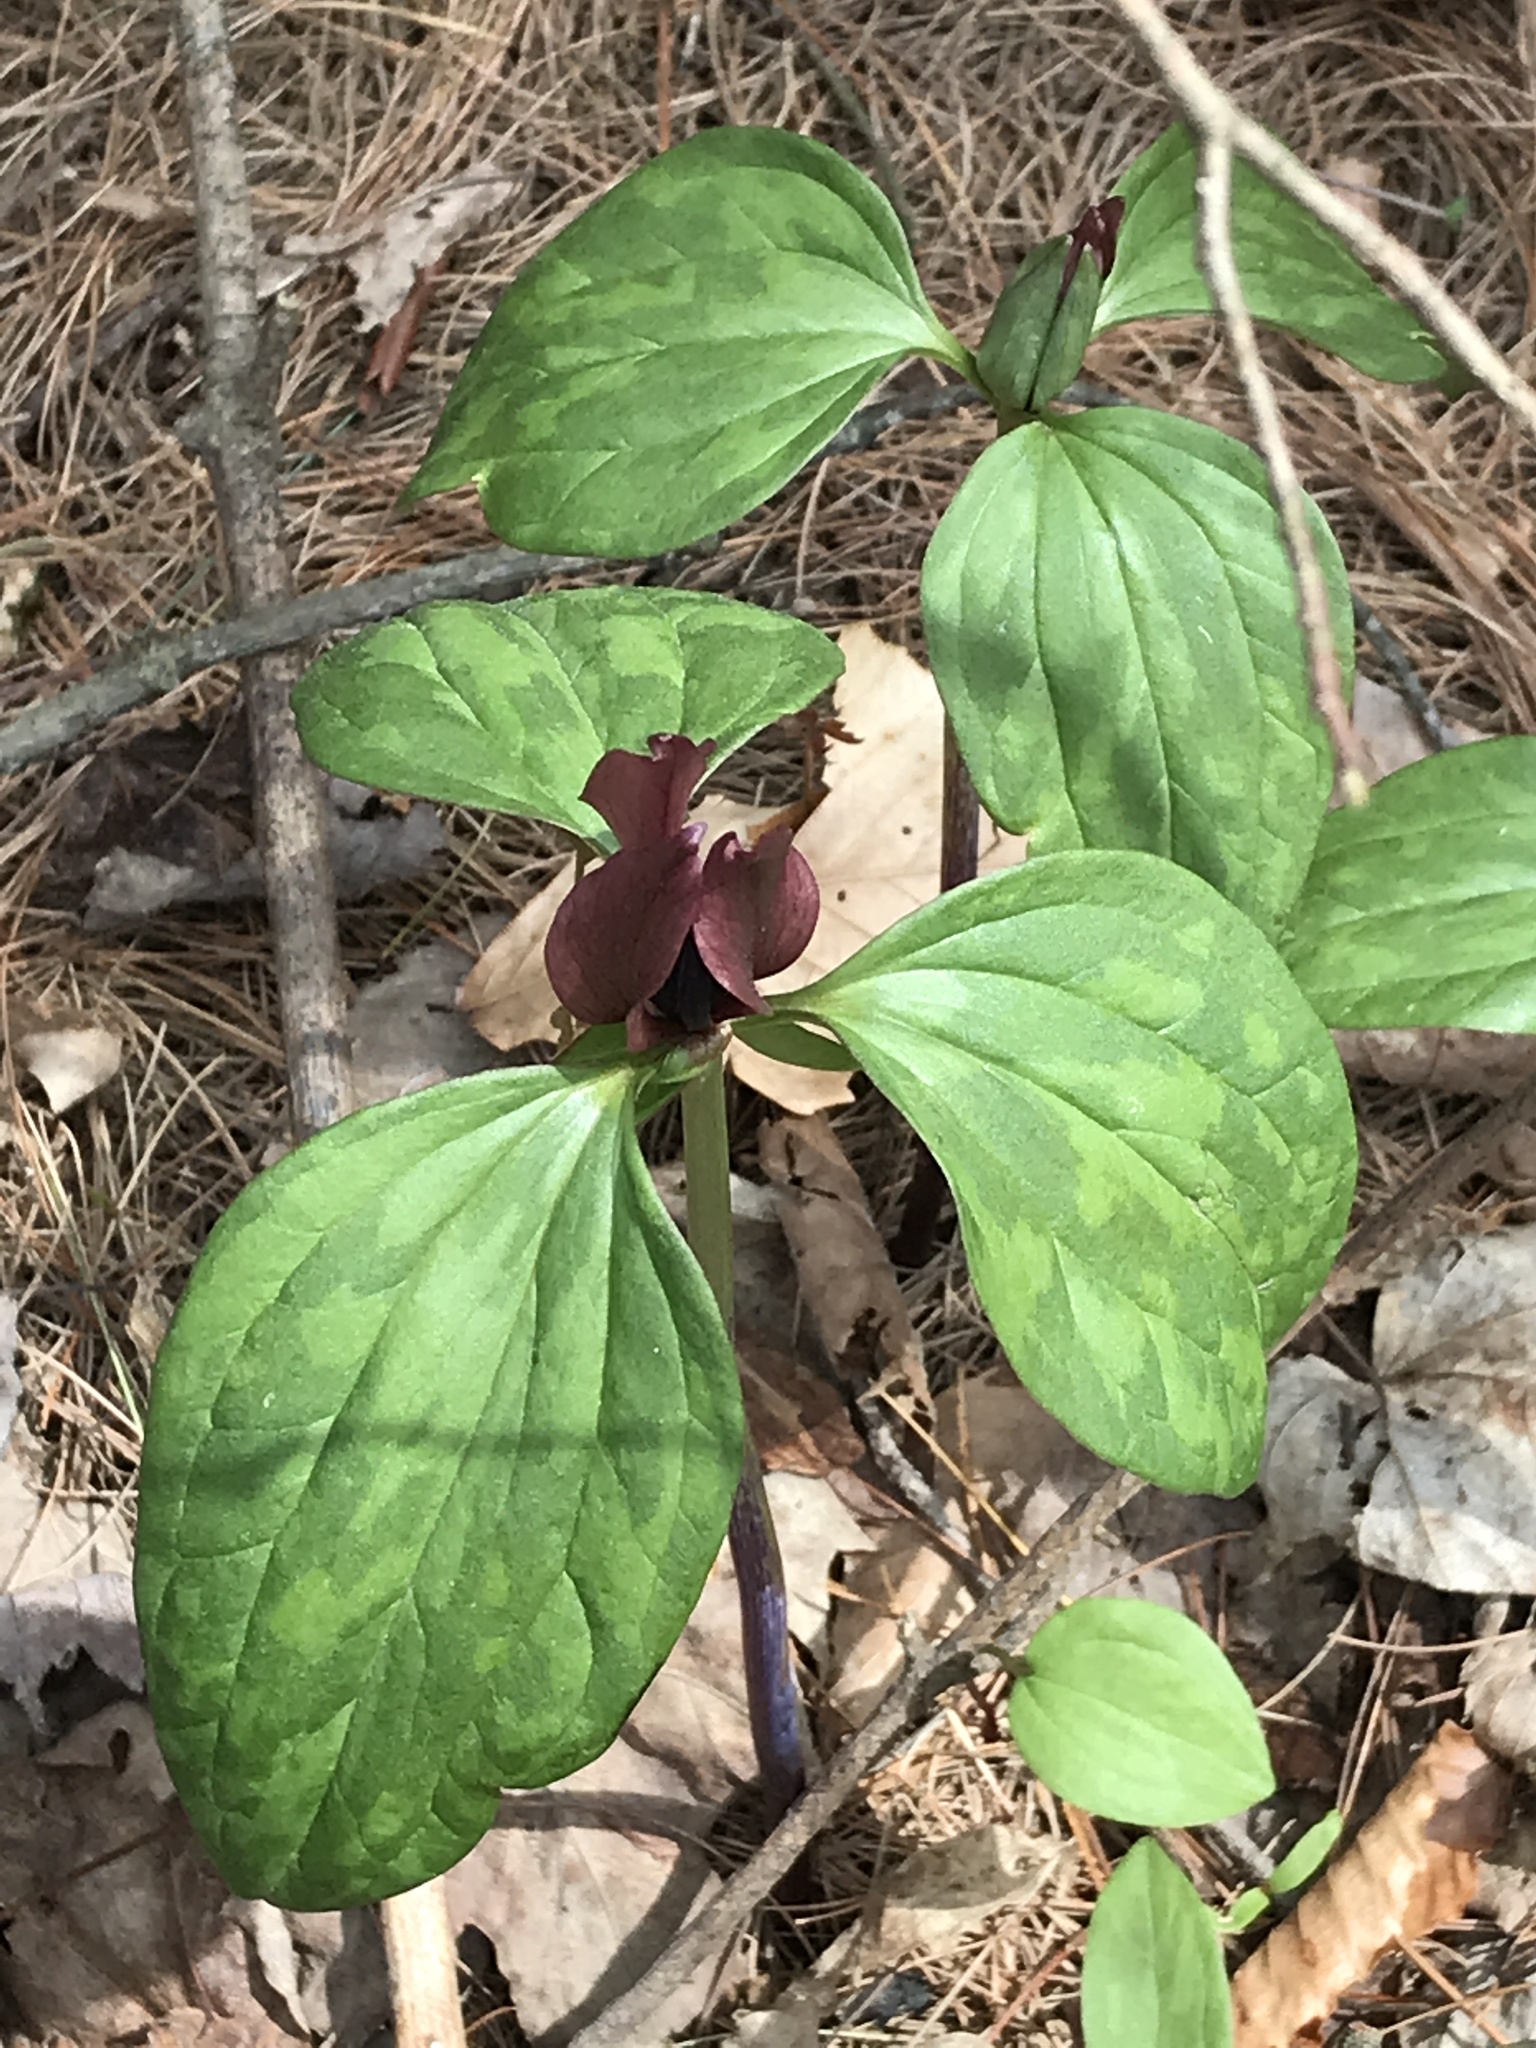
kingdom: Plantae
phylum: Tracheophyta
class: Liliopsida
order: Liliales
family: Melanthiaceae
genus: Trillium
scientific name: Trillium recurvatum
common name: Bloody butcher
